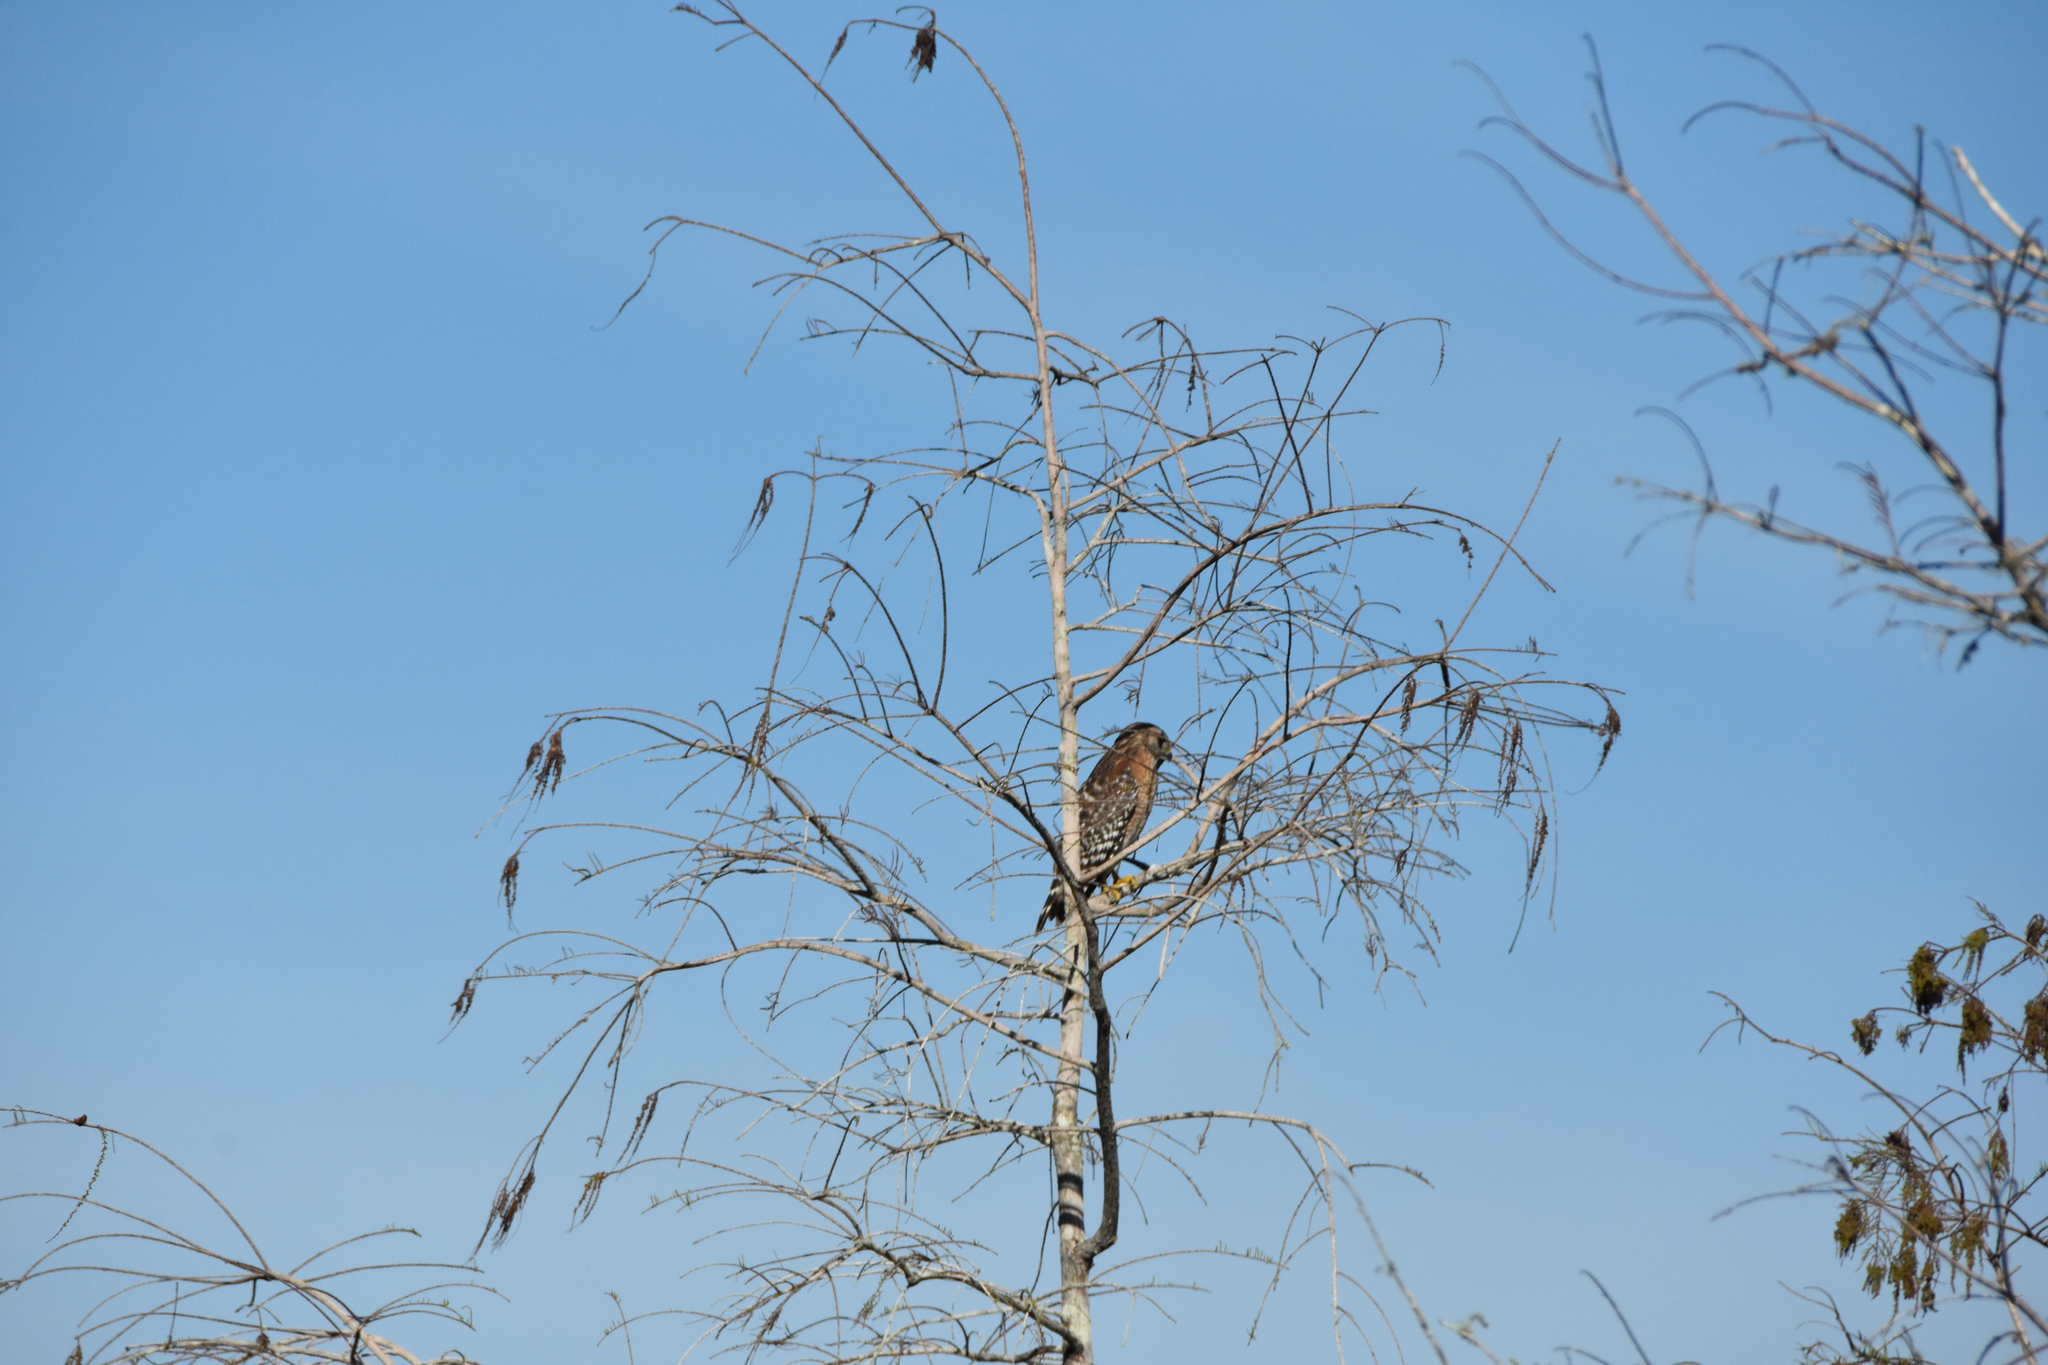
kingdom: Animalia
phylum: Chordata
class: Aves
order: Accipitriformes
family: Accipitridae
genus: Buteo
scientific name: Buteo lineatus
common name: Red-shouldered hawk
